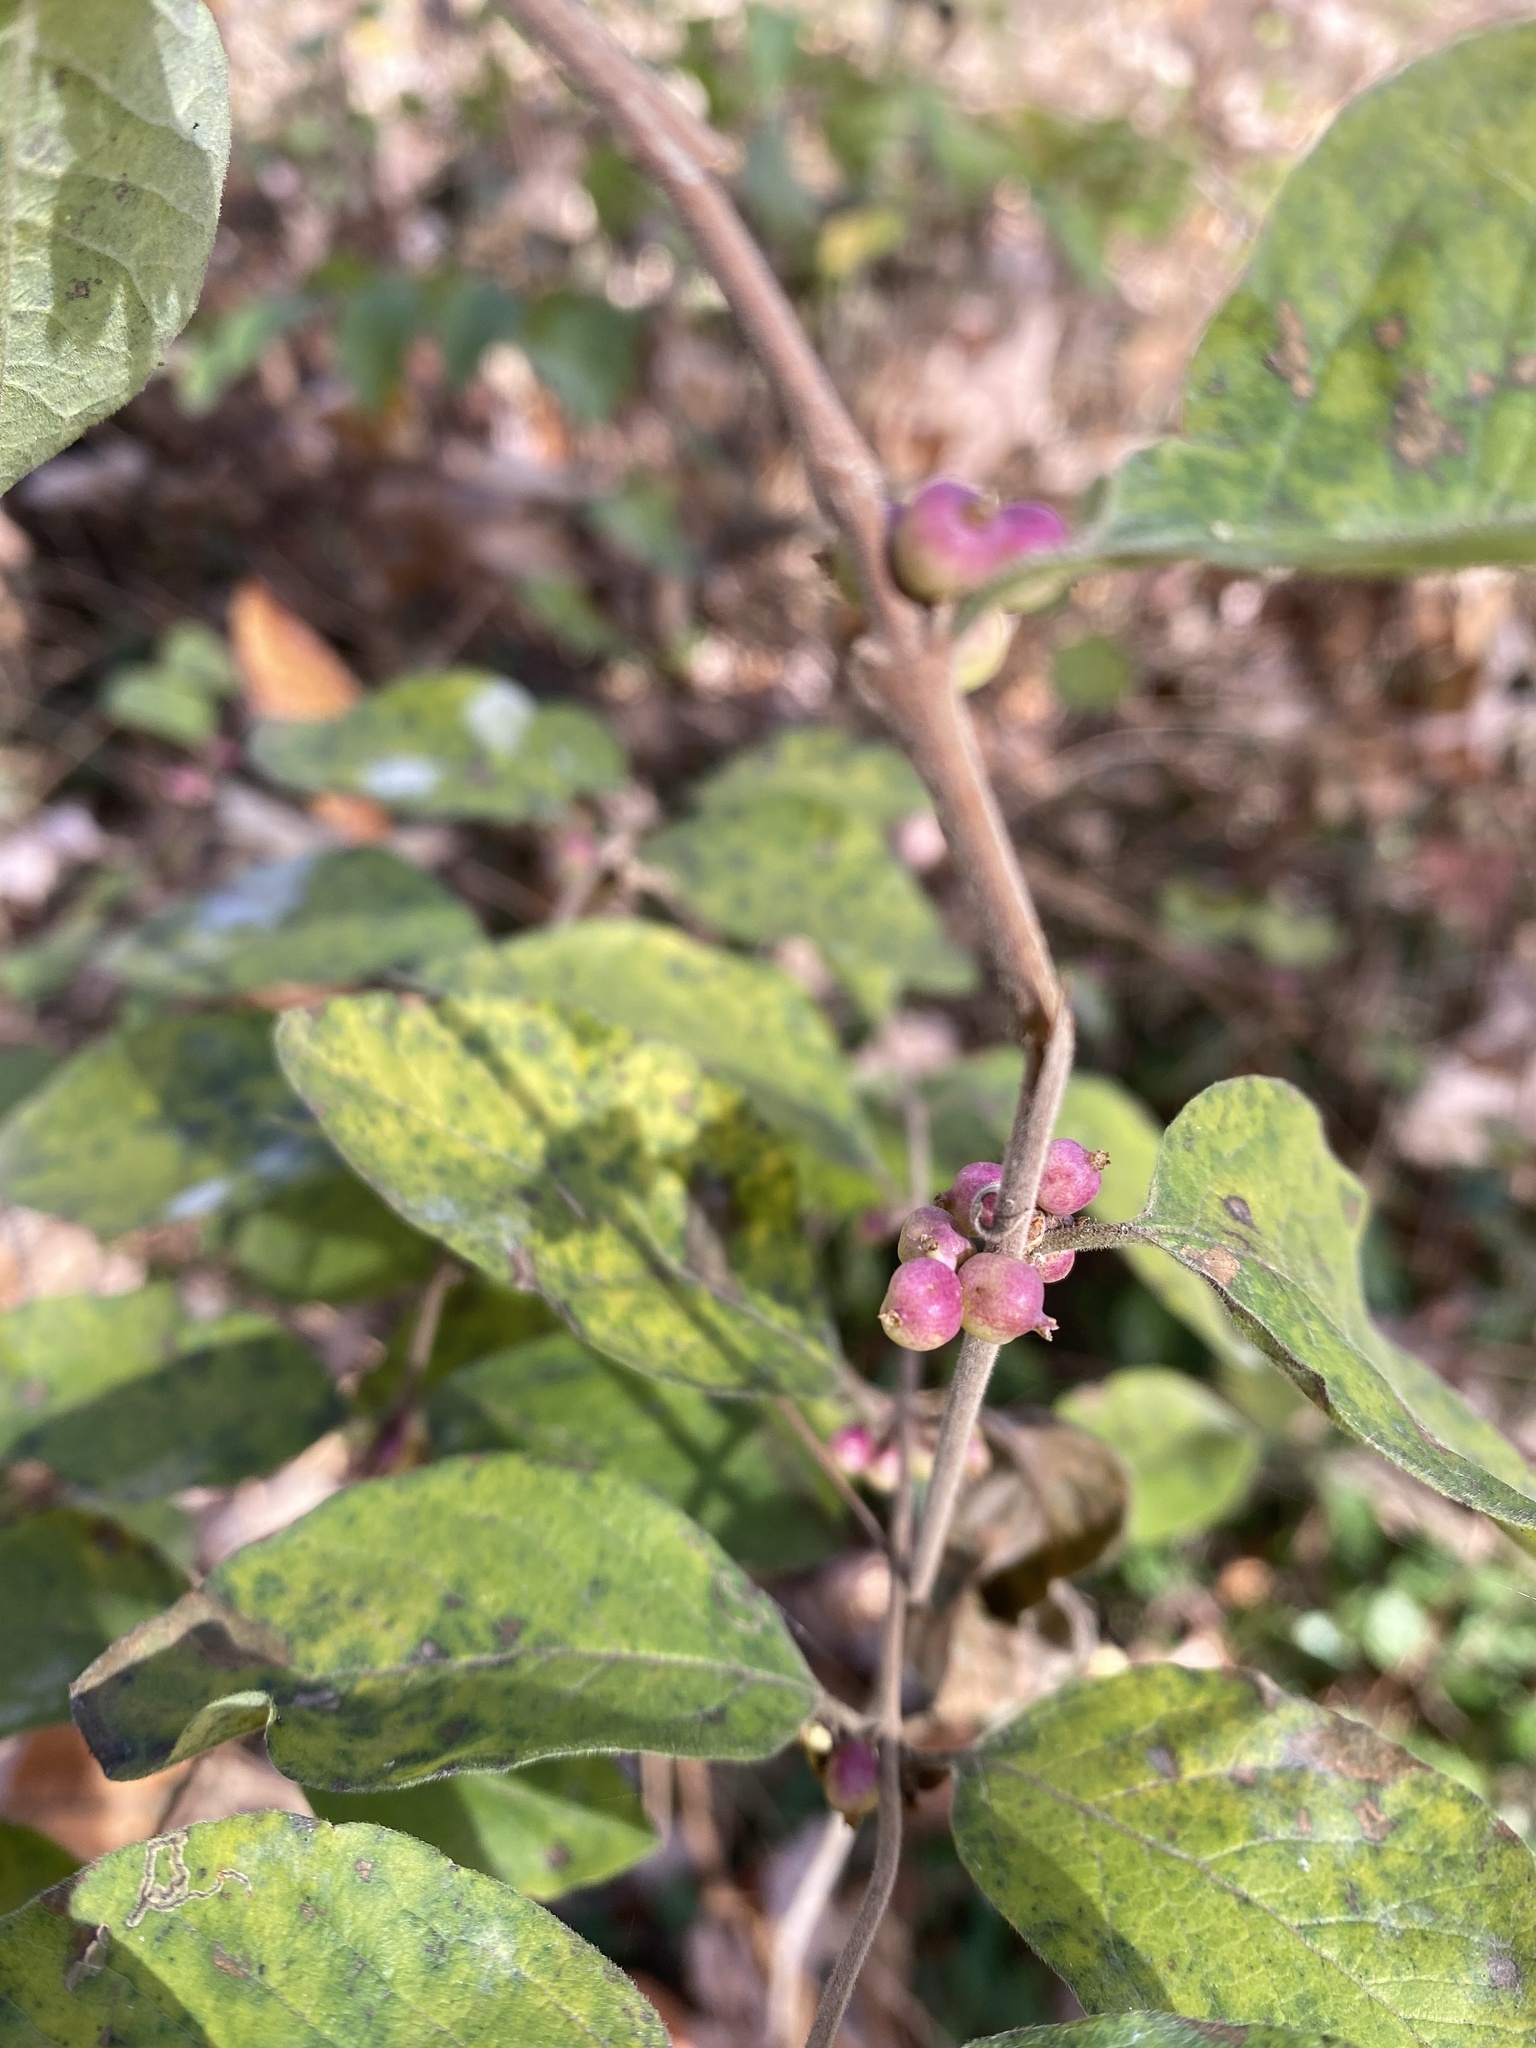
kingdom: Plantae
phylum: Tracheophyta
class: Magnoliopsida
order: Dipsacales
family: Caprifoliaceae
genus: Symphoricarpos
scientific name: Symphoricarpos orbiculatus
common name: Coralberry
